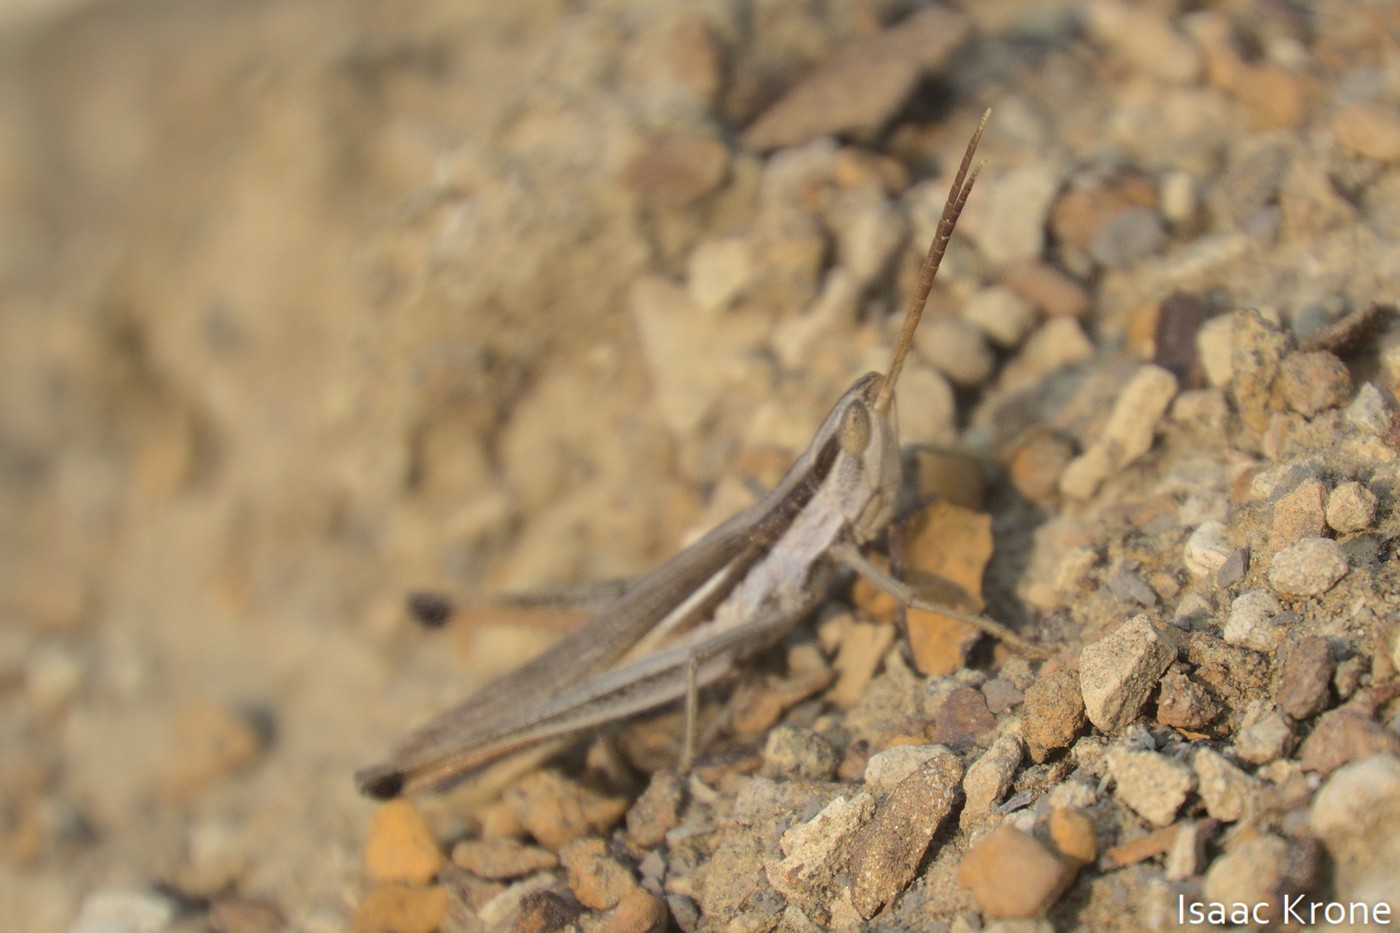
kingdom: Animalia
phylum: Arthropoda
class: Insecta
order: Orthoptera
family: Acrididae
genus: Mermiria
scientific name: Mermiria bivittata
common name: Two-striped mermiria grasshopper
